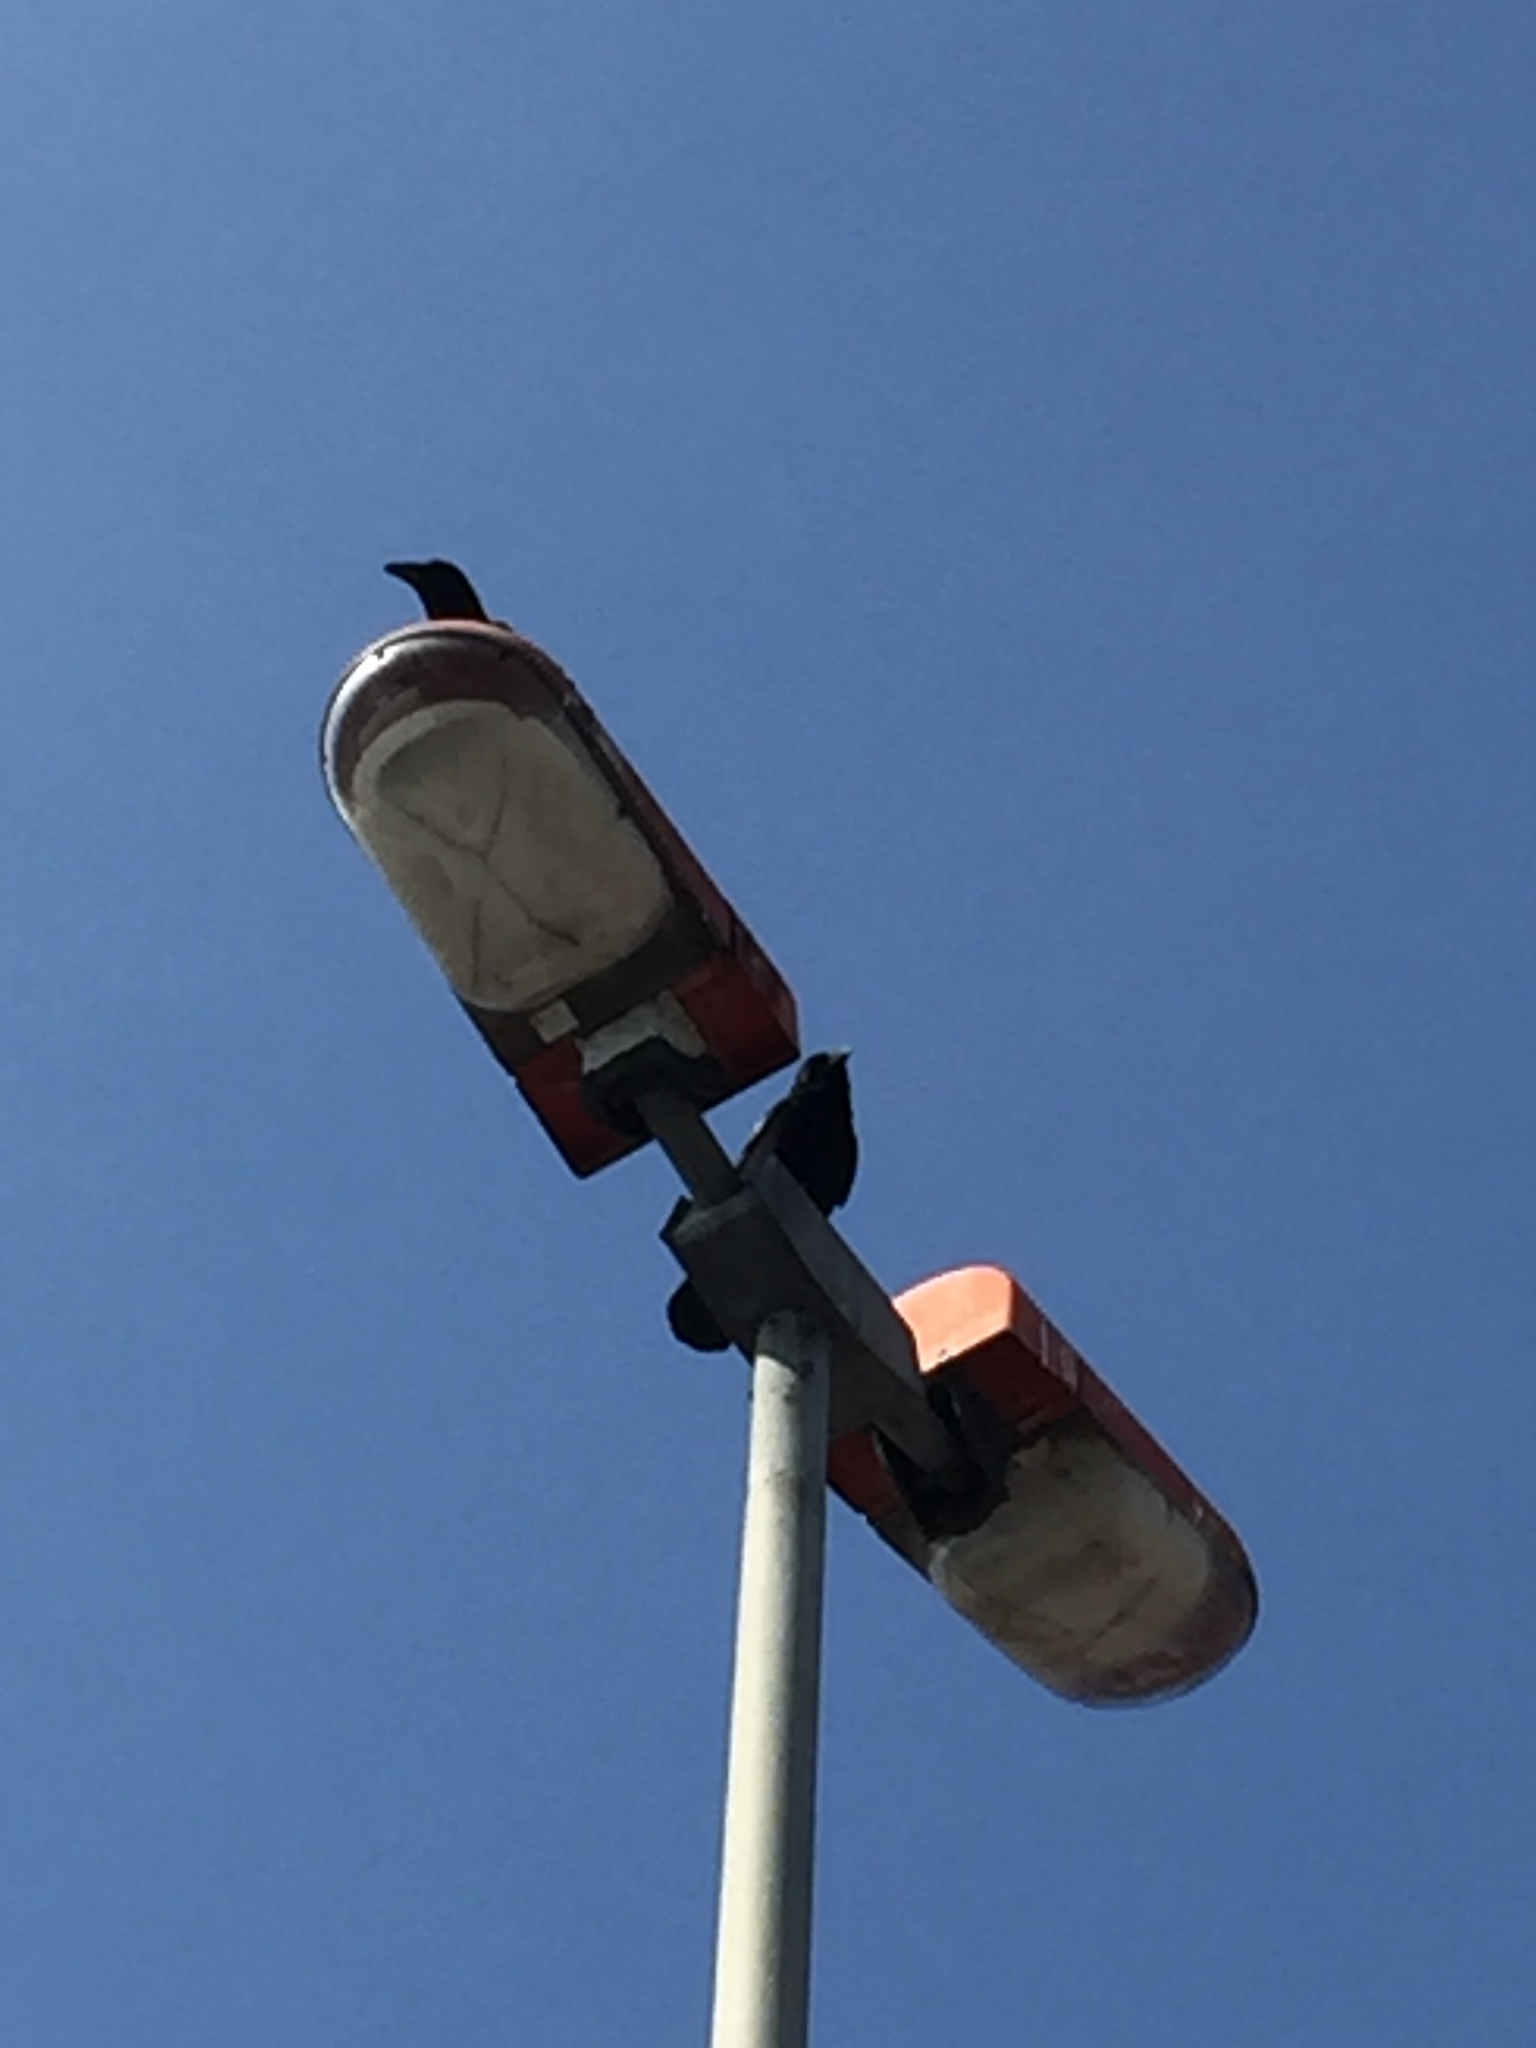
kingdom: Animalia
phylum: Chordata
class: Aves
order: Passeriformes
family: Corvidae
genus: Corvus
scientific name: Corvus corone
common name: Carrion crow
